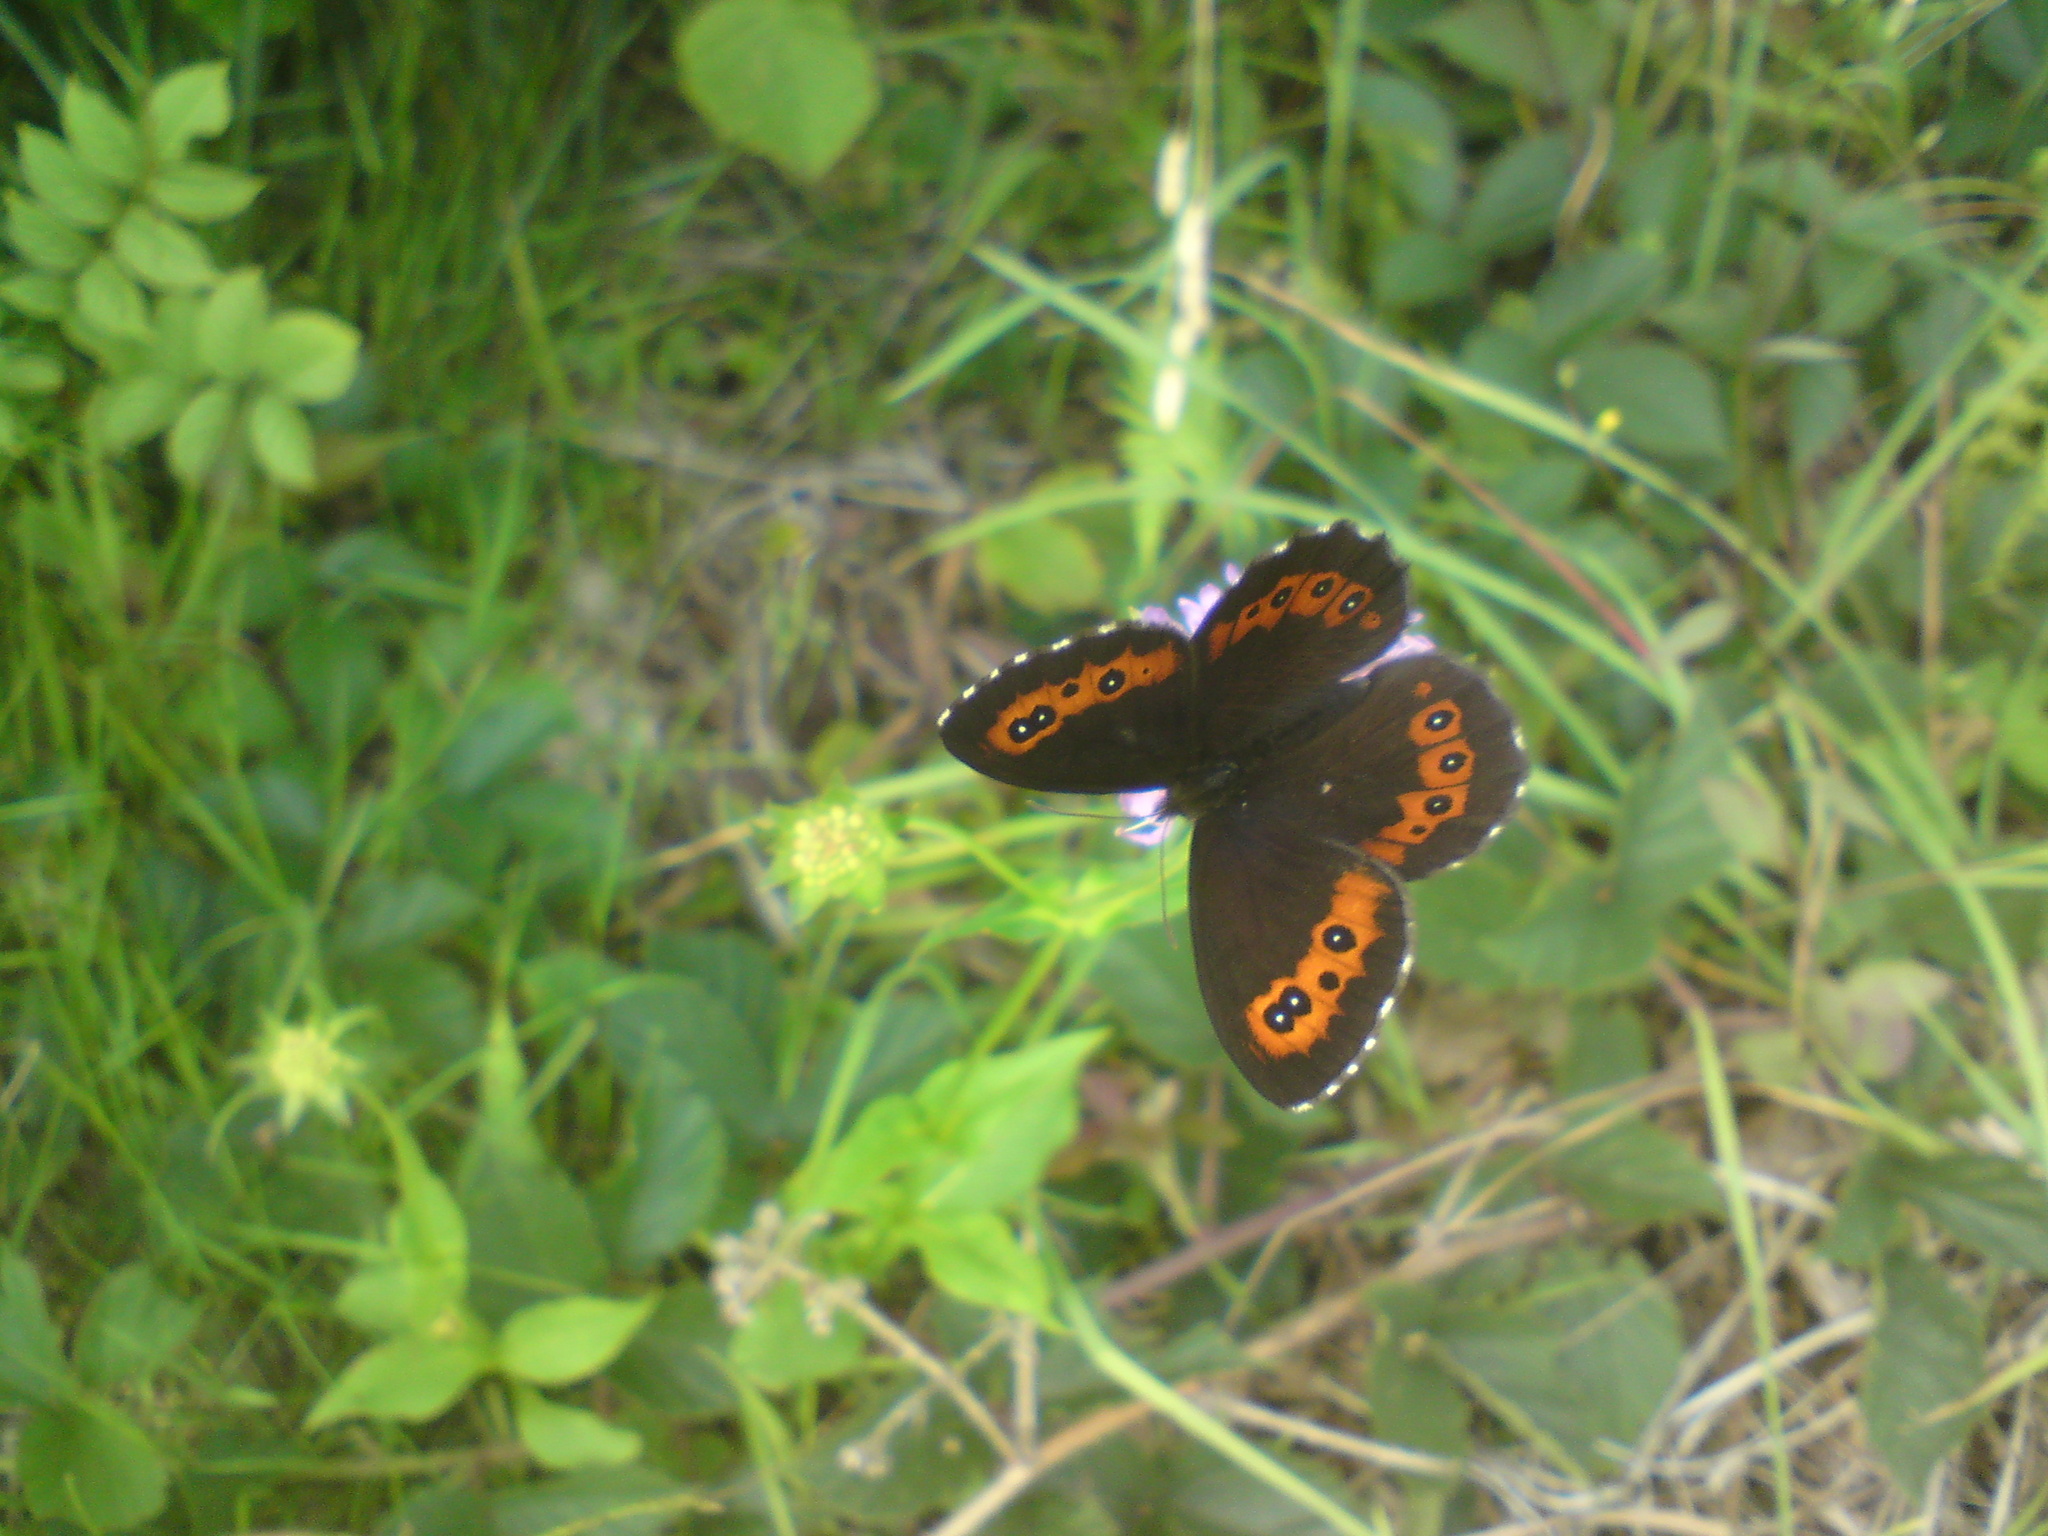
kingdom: Animalia
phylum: Arthropoda
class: Insecta
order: Lepidoptera
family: Nymphalidae
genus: Erebia
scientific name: Erebia ligea
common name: Arran brown
